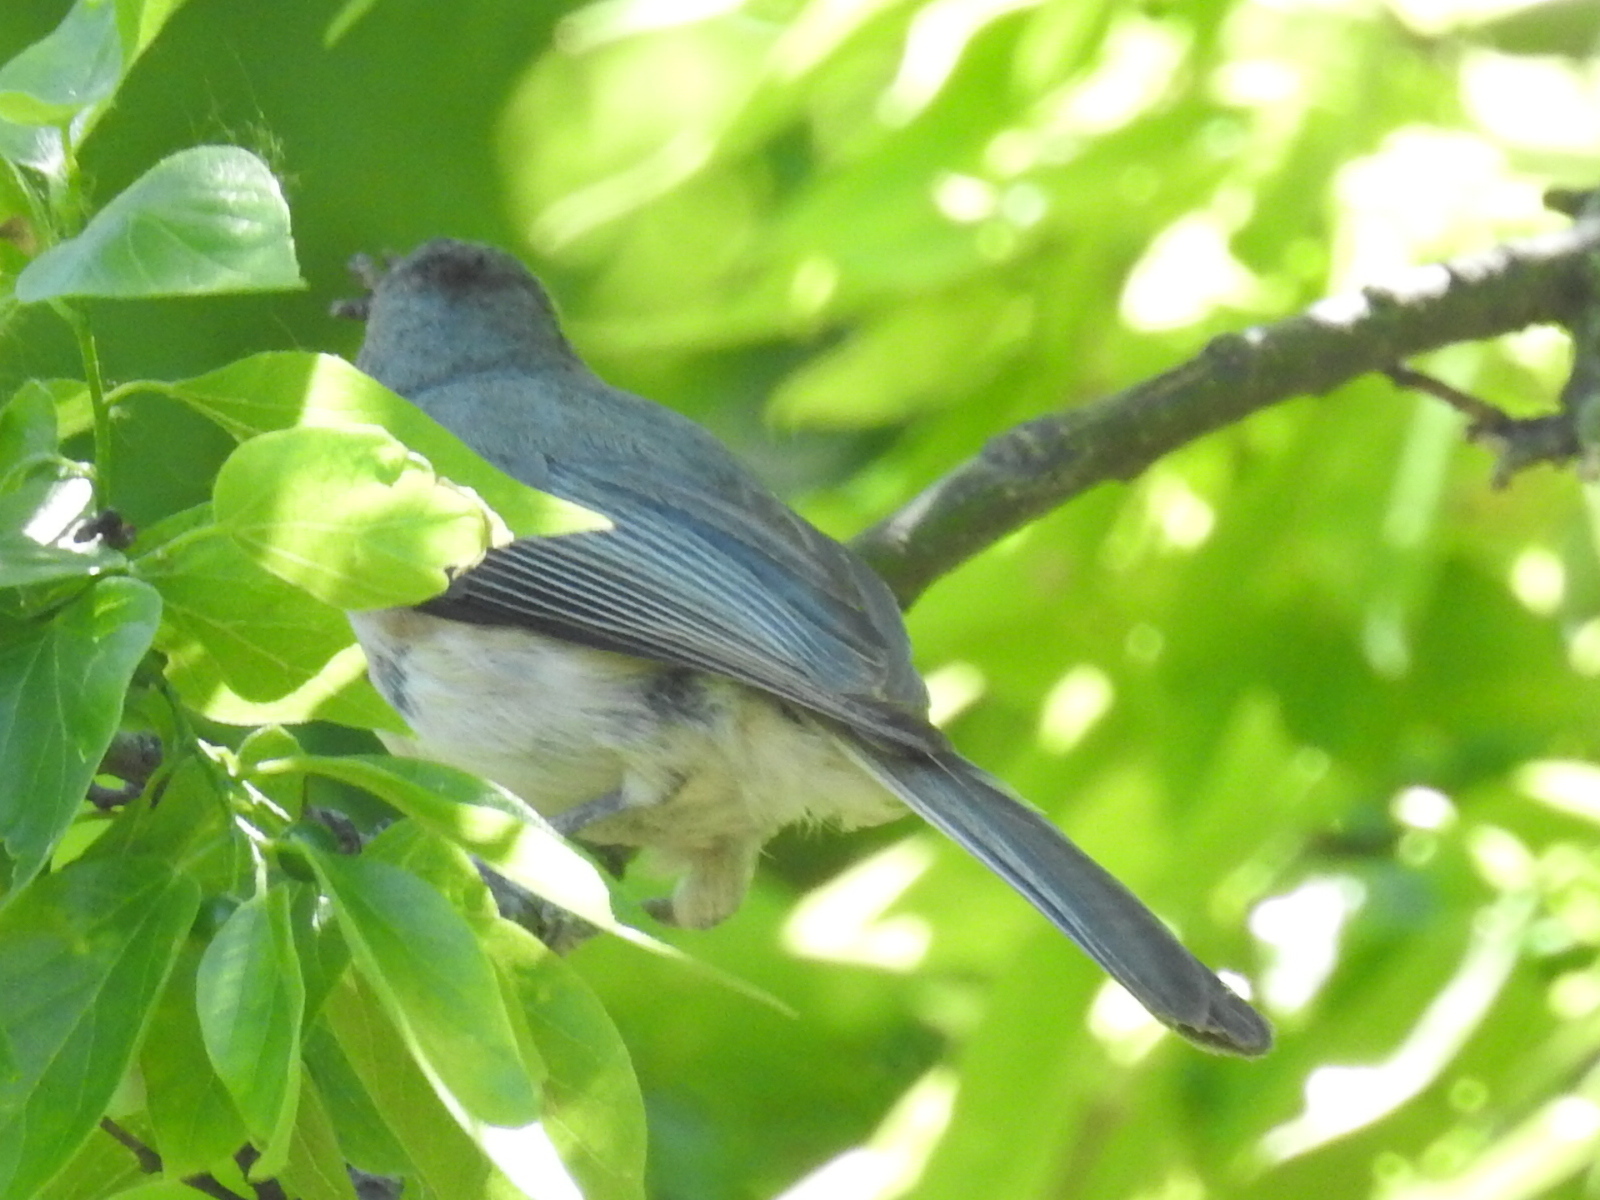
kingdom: Animalia
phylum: Chordata
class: Aves
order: Passeriformes
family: Paridae
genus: Baeolophus
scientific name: Baeolophus bicolor
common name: Tufted titmouse
